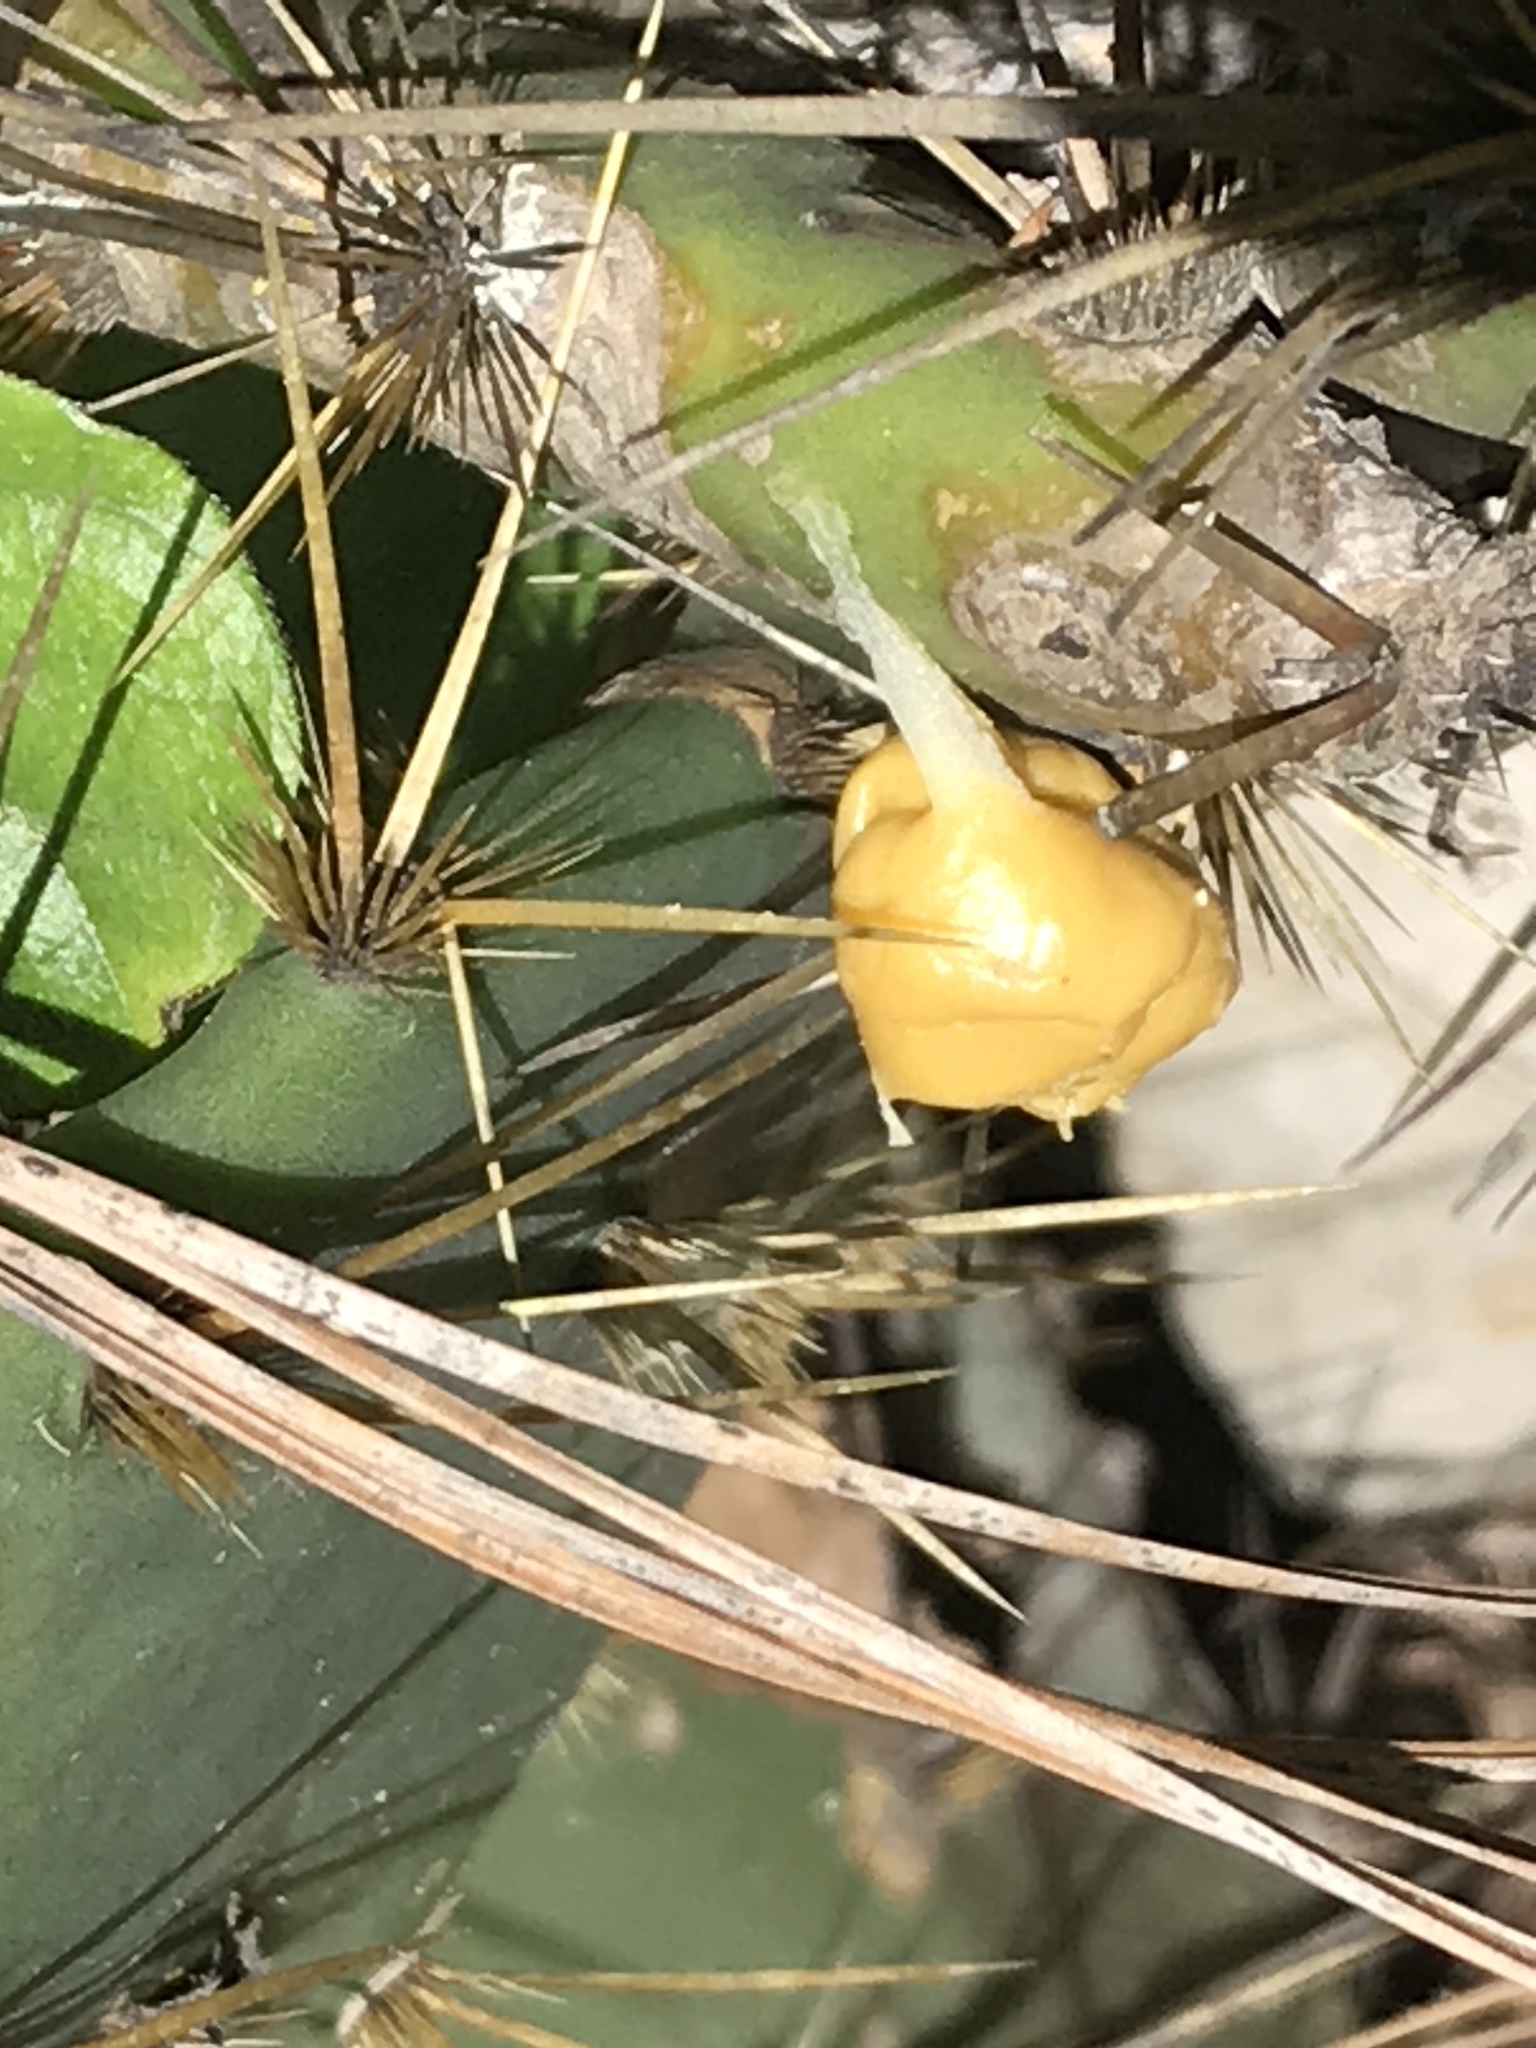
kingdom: Plantae
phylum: Tracheophyta
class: Magnoliopsida
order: Caryophyllales
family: Cactaceae
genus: Opuntia
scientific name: Opuntia engelmannii
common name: Cactus-apple
